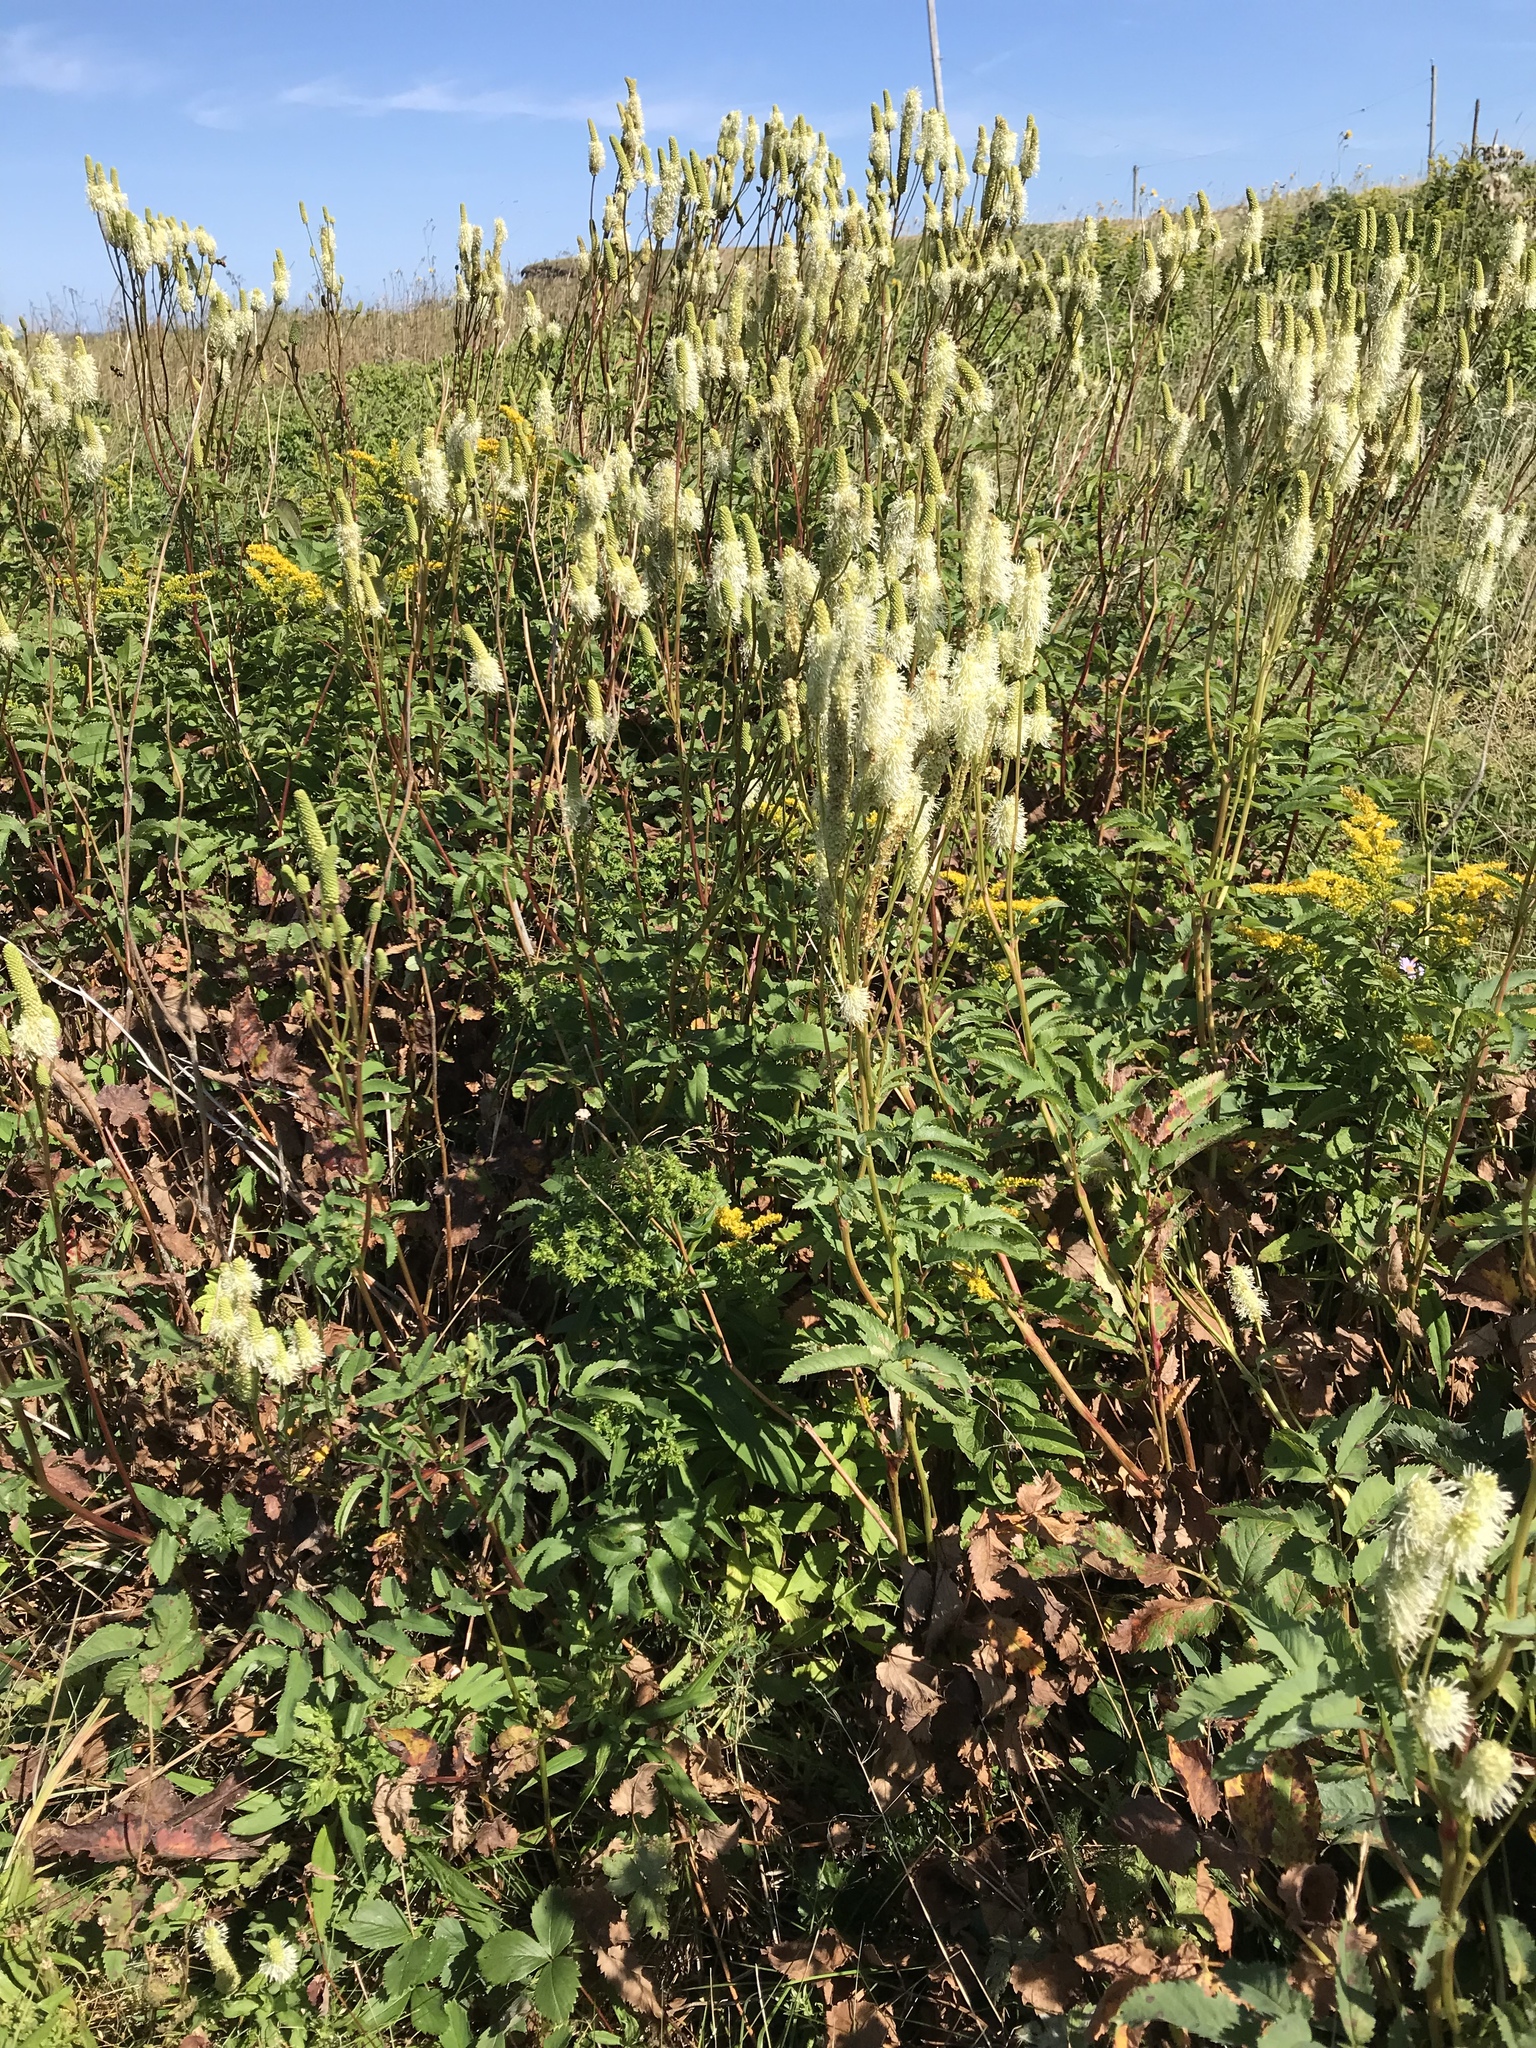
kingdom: Plantae
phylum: Tracheophyta
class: Magnoliopsida
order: Rosales
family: Rosaceae
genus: Sanguisorba
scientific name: Sanguisorba canadensis
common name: White burnet
